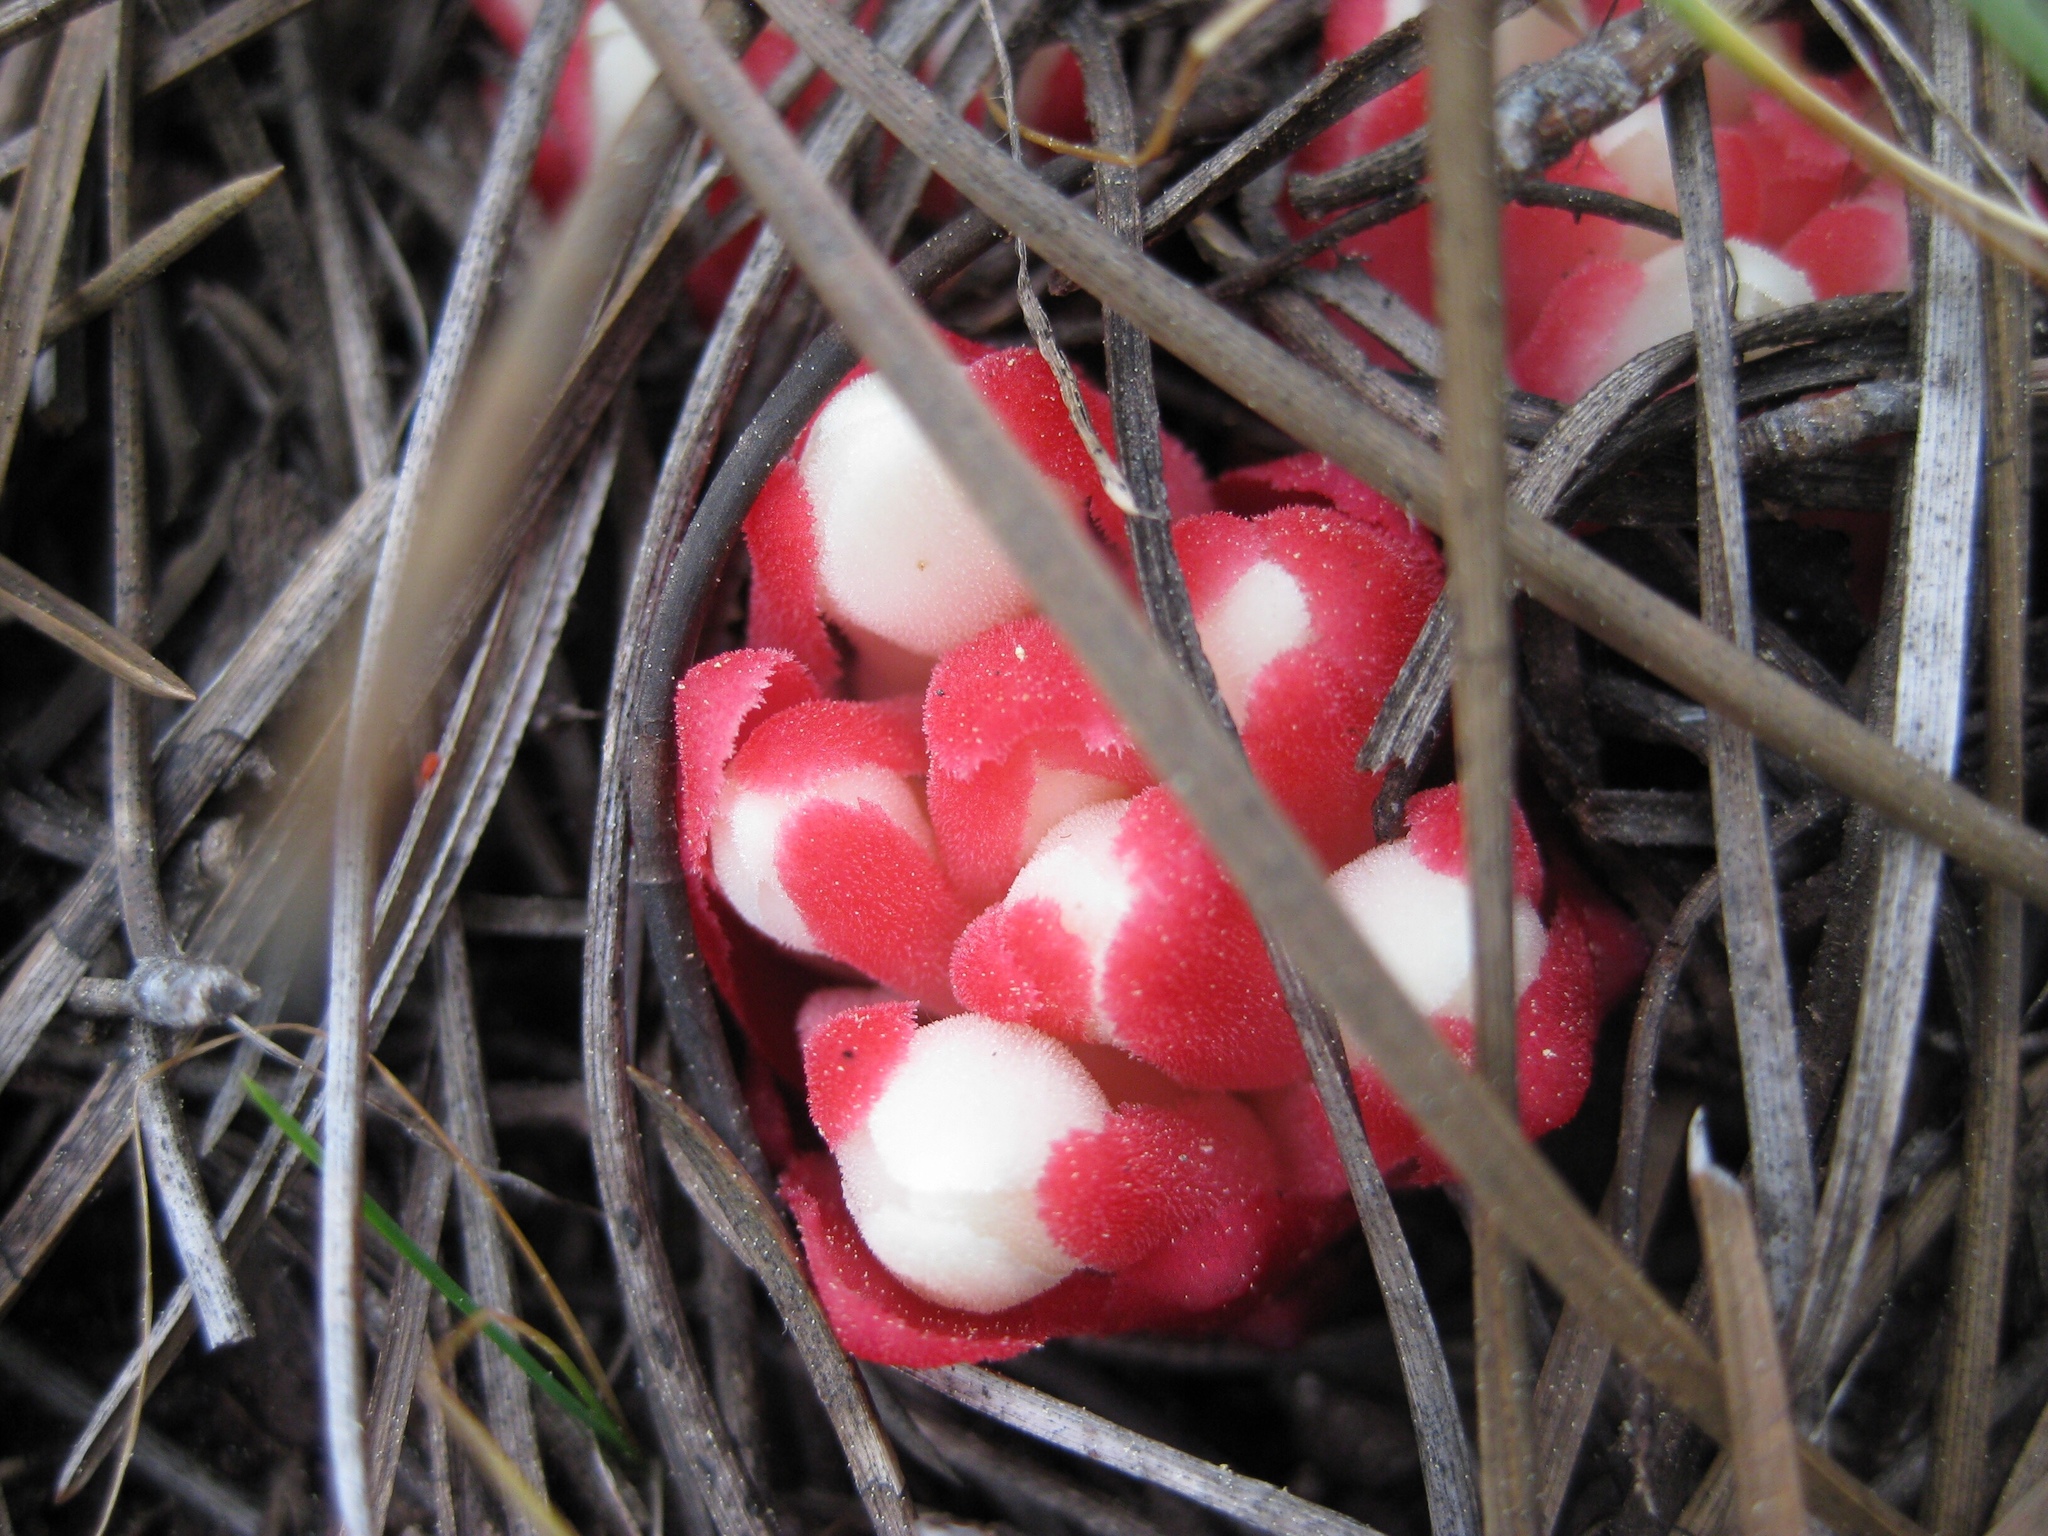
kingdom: Plantae
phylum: Tracheophyta
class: Magnoliopsida
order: Malvales
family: Cytinaceae
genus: Cytinus
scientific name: Cytinus ruber
